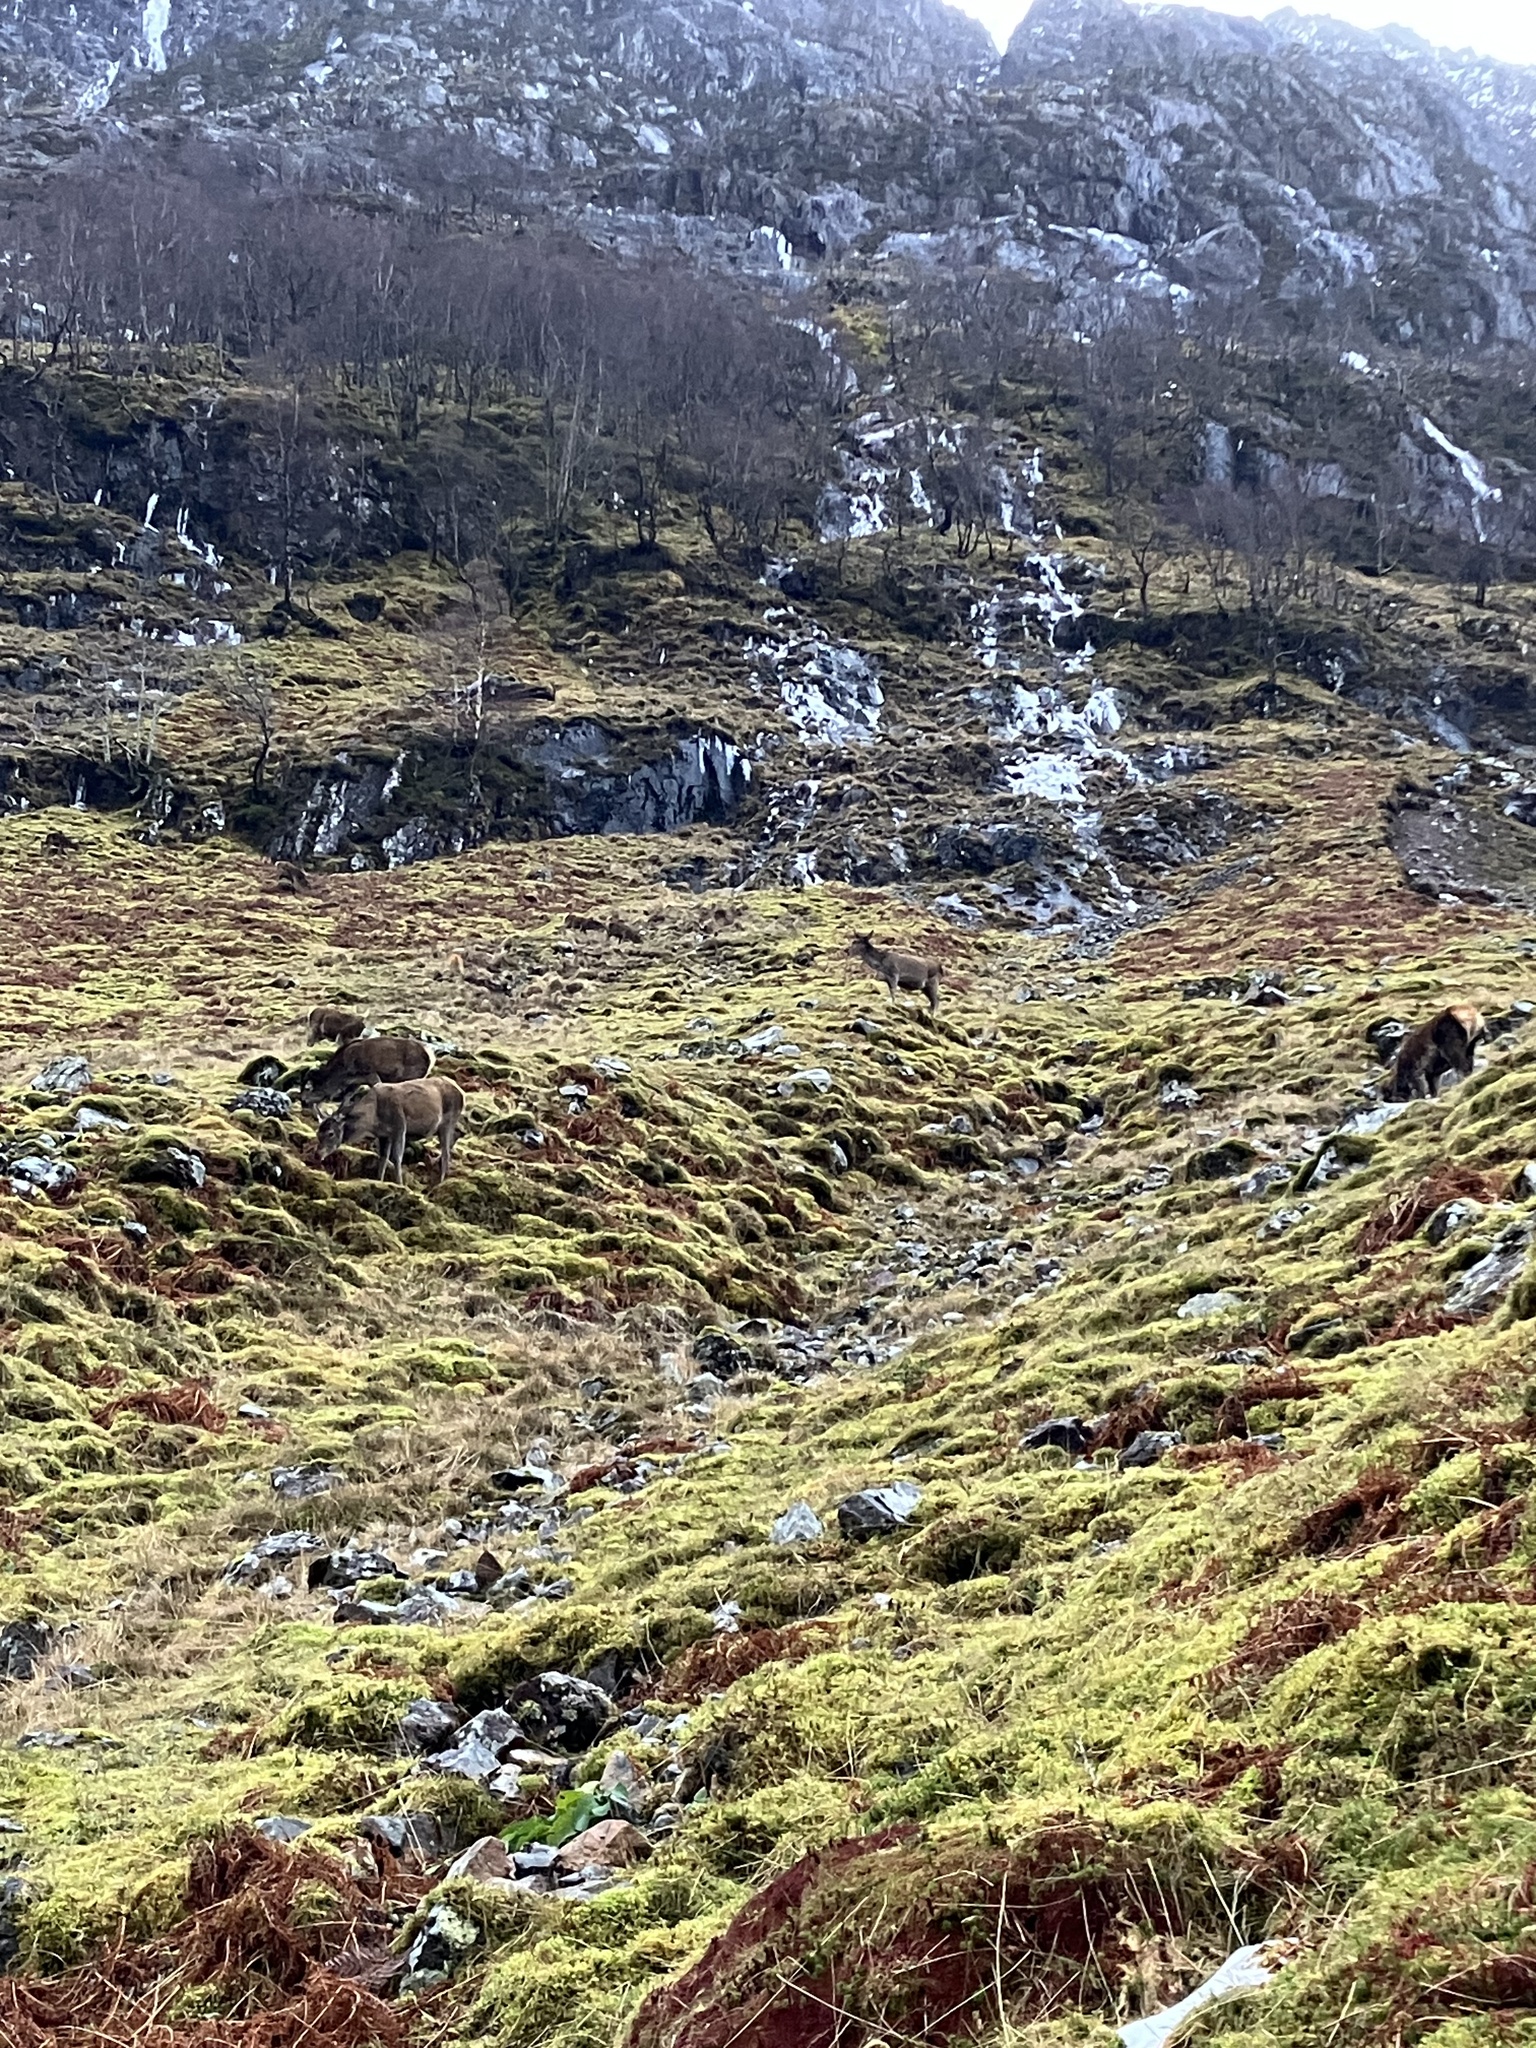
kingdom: Animalia
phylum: Chordata
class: Mammalia
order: Artiodactyla
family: Cervidae
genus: Cervus
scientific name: Cervus elaphus
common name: Red deer
